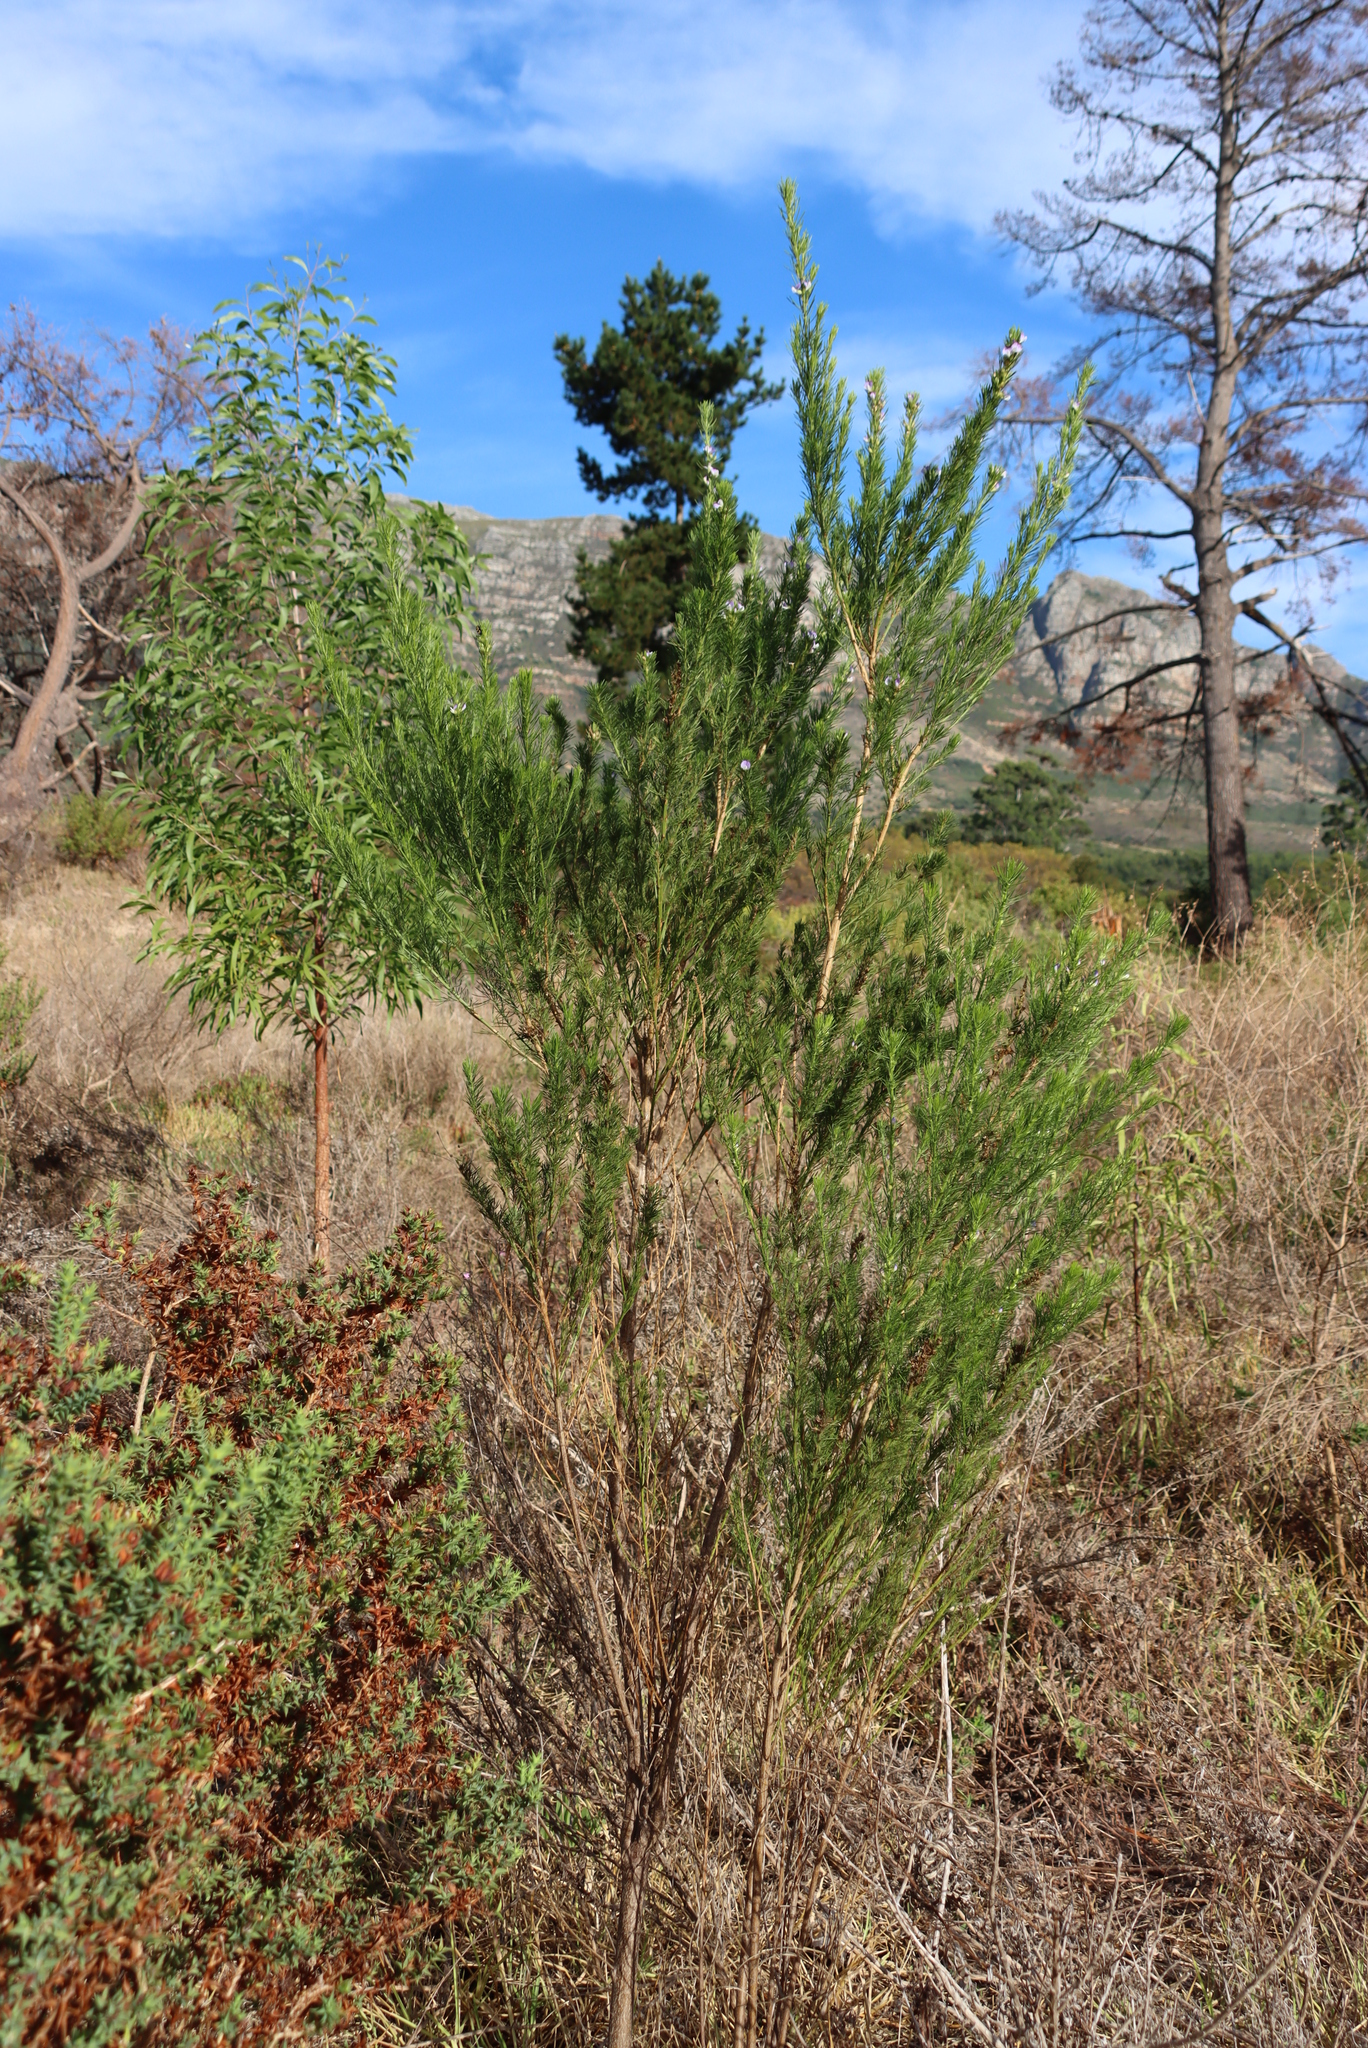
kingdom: Plantae
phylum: Tracheophyta
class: Magnoliopsida
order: Fabales
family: Fabaceae
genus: Psoralea
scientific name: Psoralea pinnata
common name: African scurfpea
